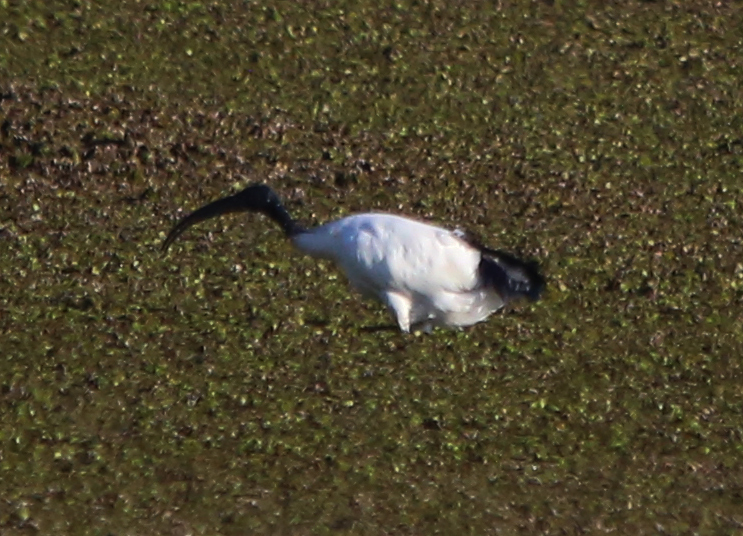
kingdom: Animalia
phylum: Chordata
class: Aves
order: Pelecaniformes
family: Threskiornithidae
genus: Threskiornis
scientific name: Threskiornis aethiopicus
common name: Sacred ibis
